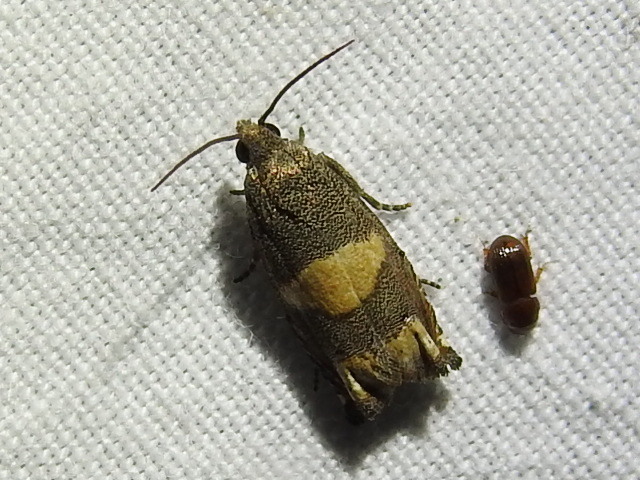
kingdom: Animalia
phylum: Arthropoda
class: Insecta
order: Lepidoptera
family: Tortricidae
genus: Epiblema
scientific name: Epiblema
